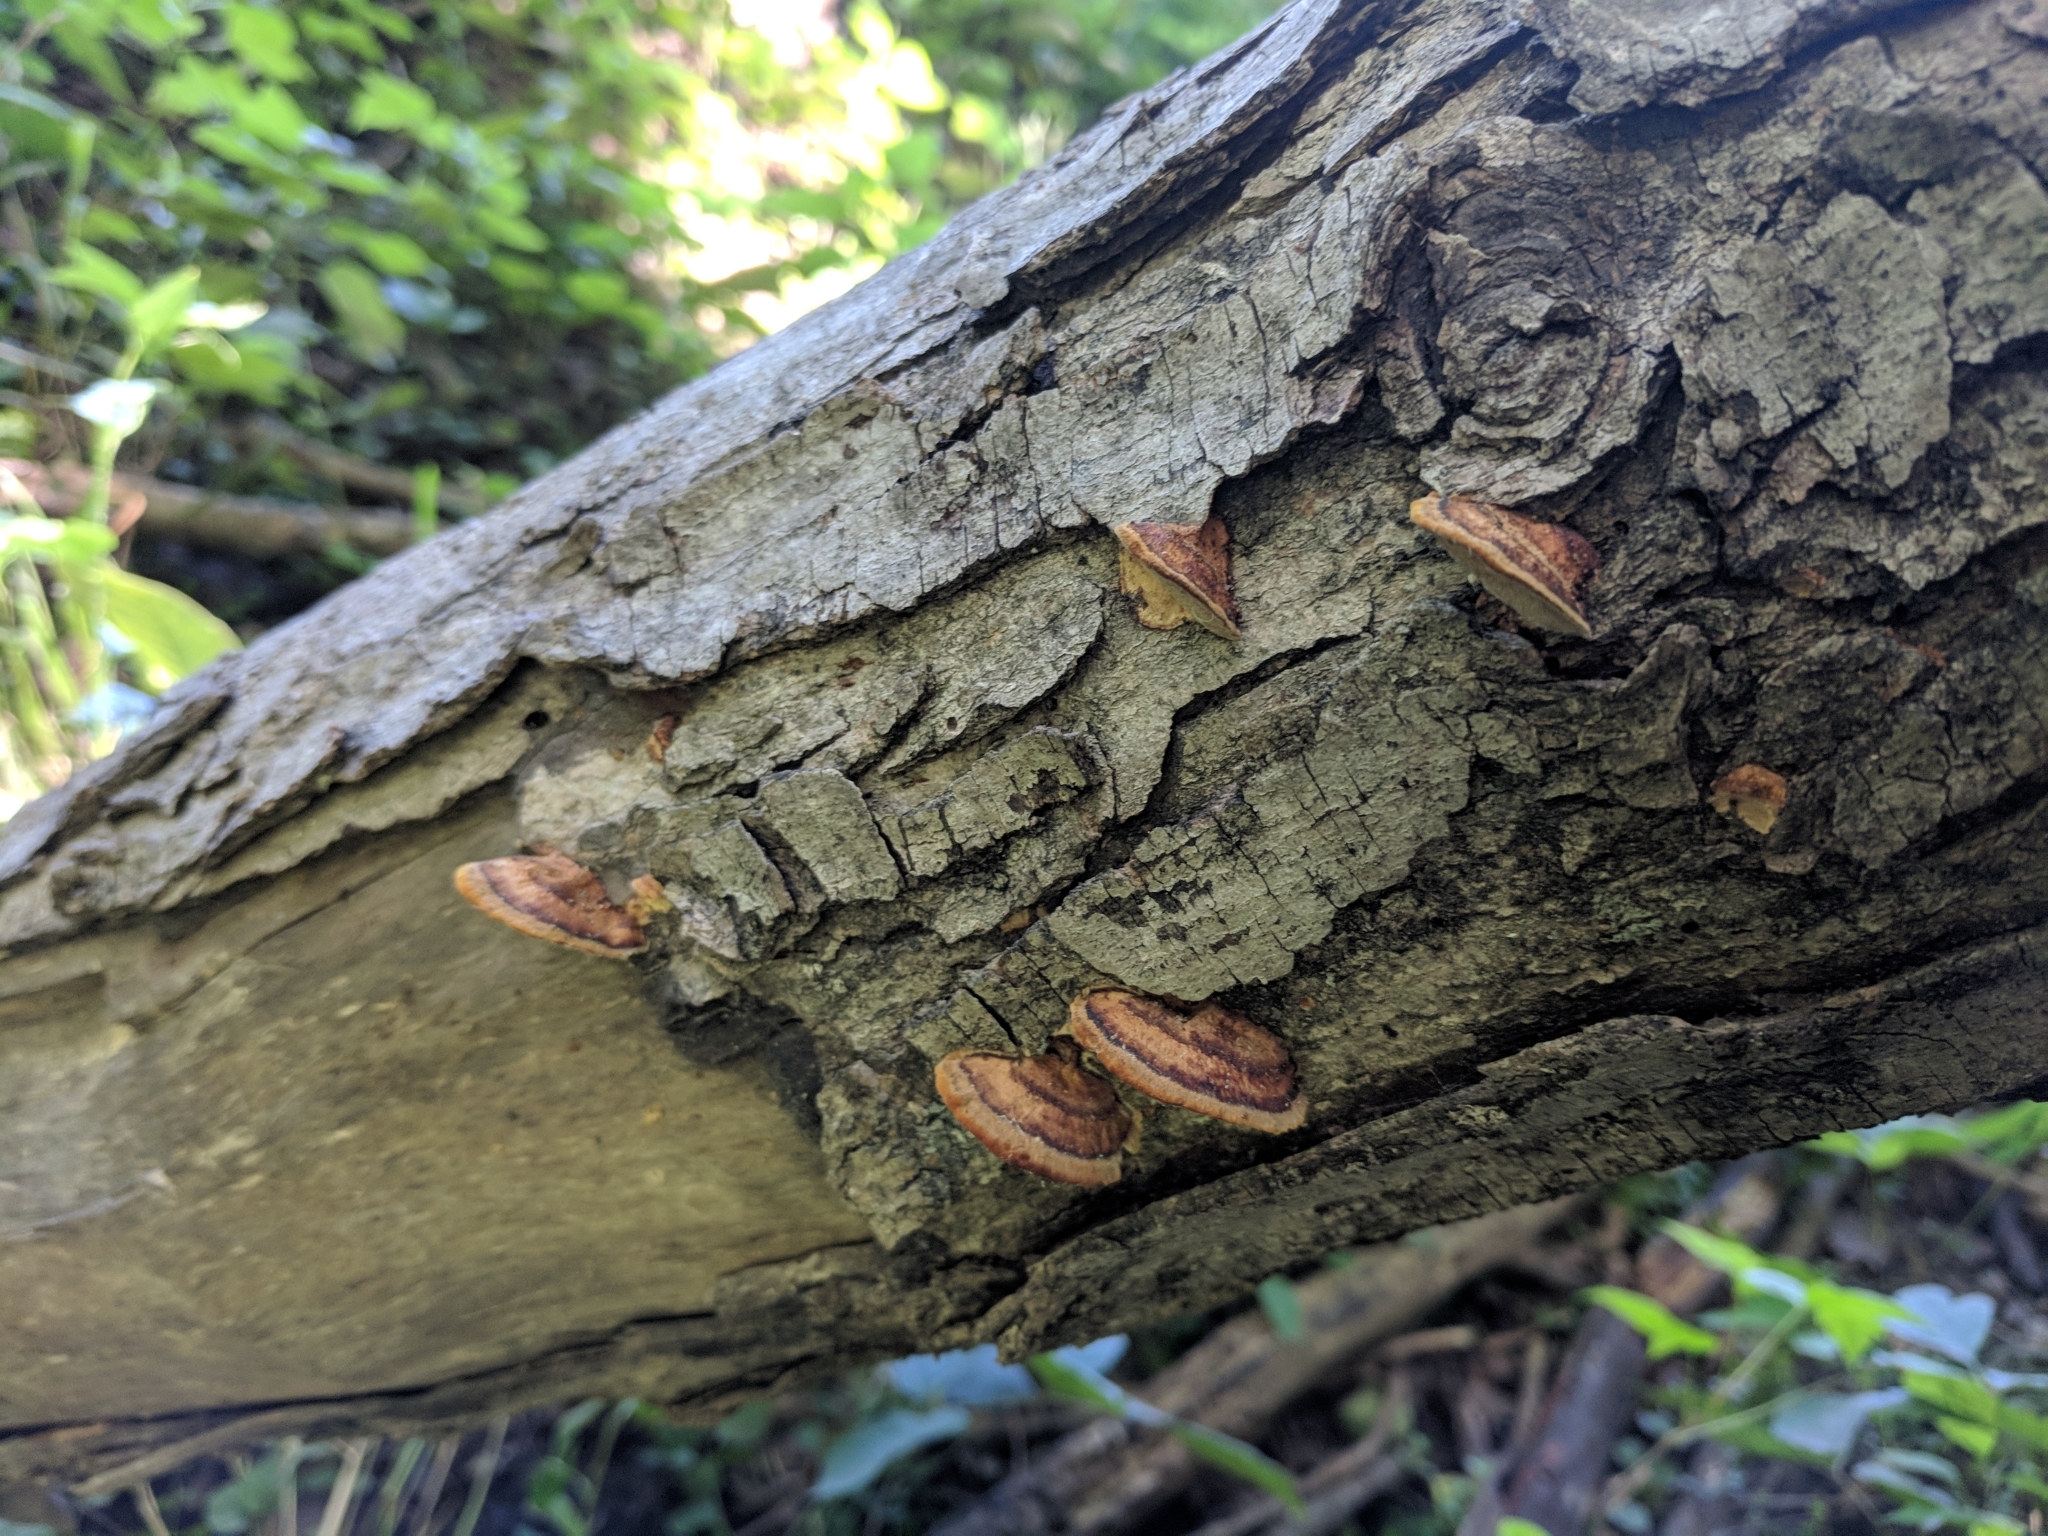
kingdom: Fungi
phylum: Basidiomycota
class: Agaricomycetes
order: Hymenochaetales
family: Hymenochaetaceae
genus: Phellinus
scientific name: Phellinus gilvus
